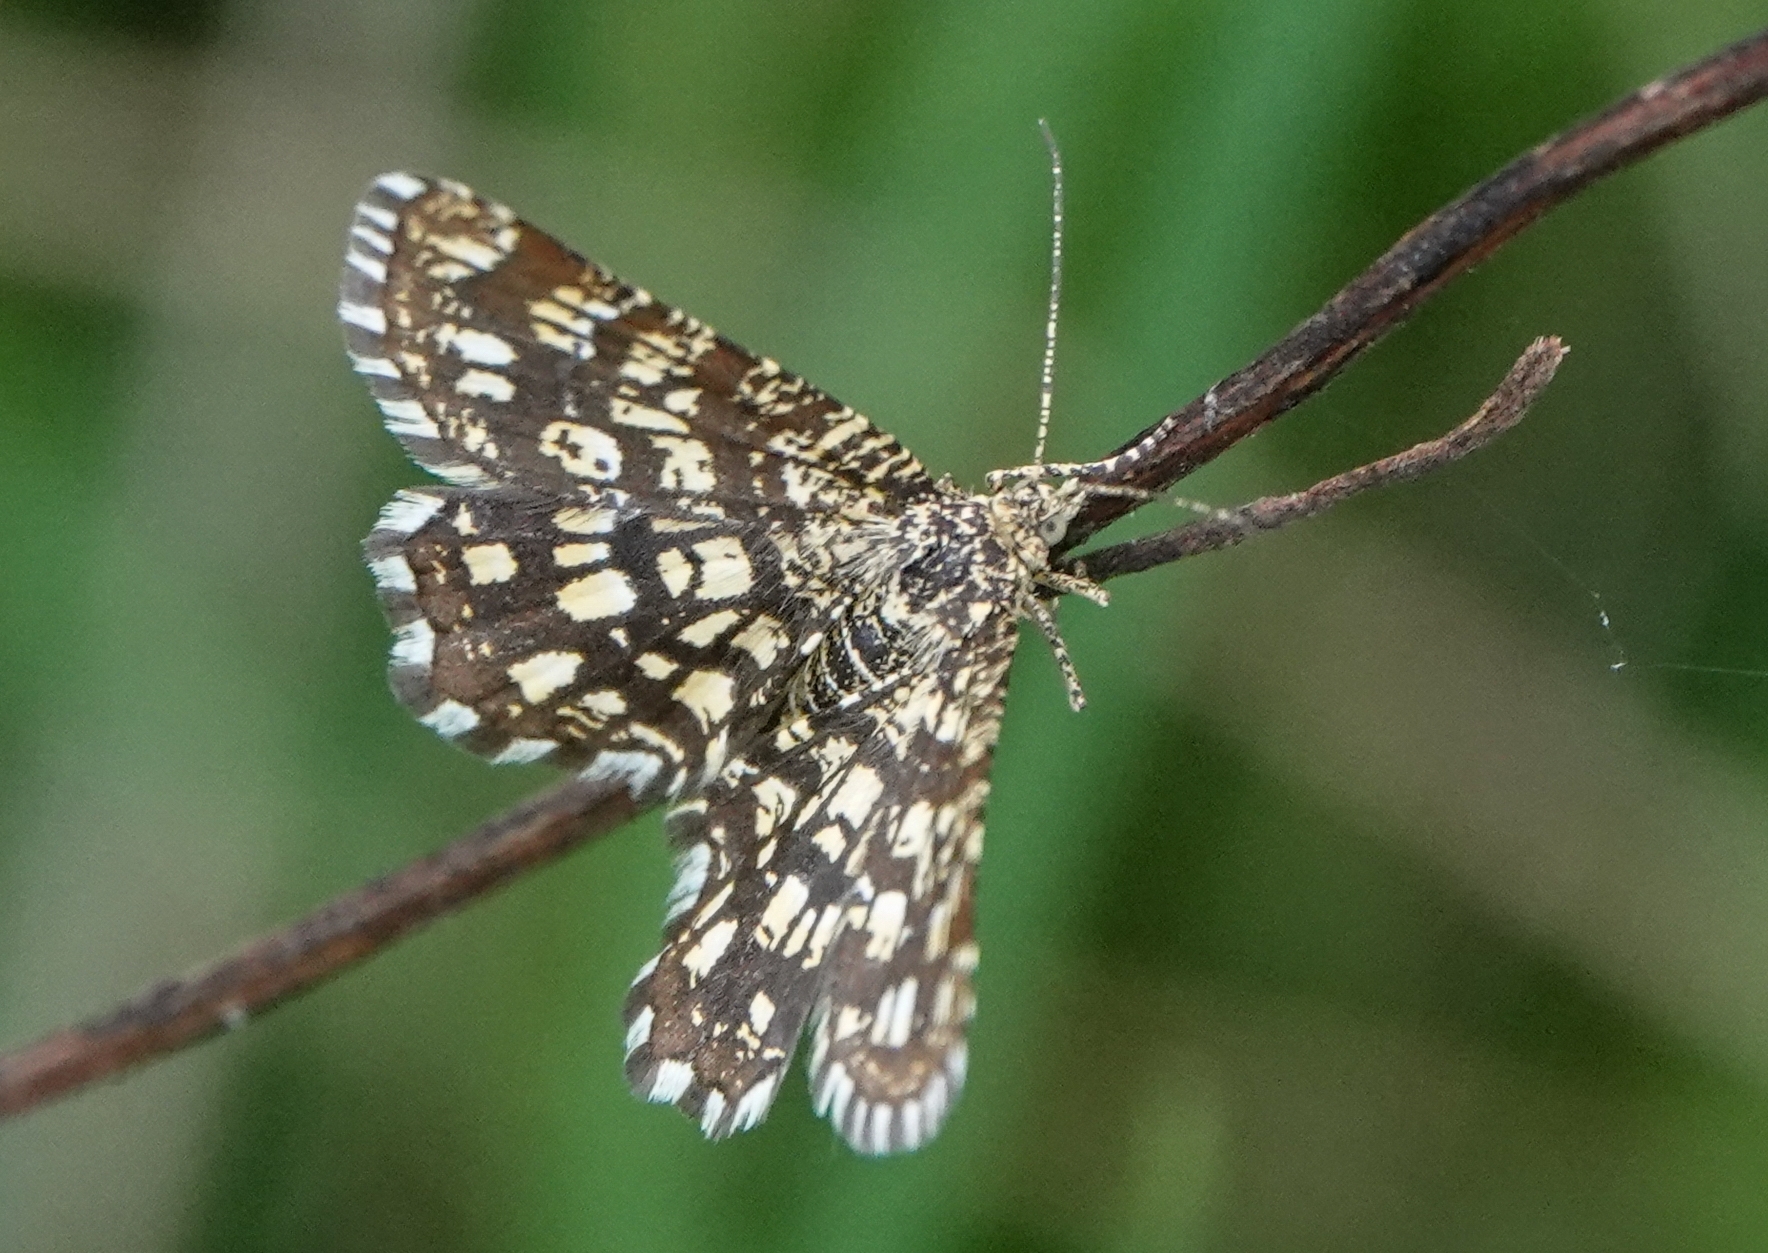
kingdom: Animalia
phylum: Arthropoda
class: Insecta
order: Lepidoptera
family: Geometridae
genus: Chiasmia
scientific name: Chiasmia clathrata
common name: Latticed heath
